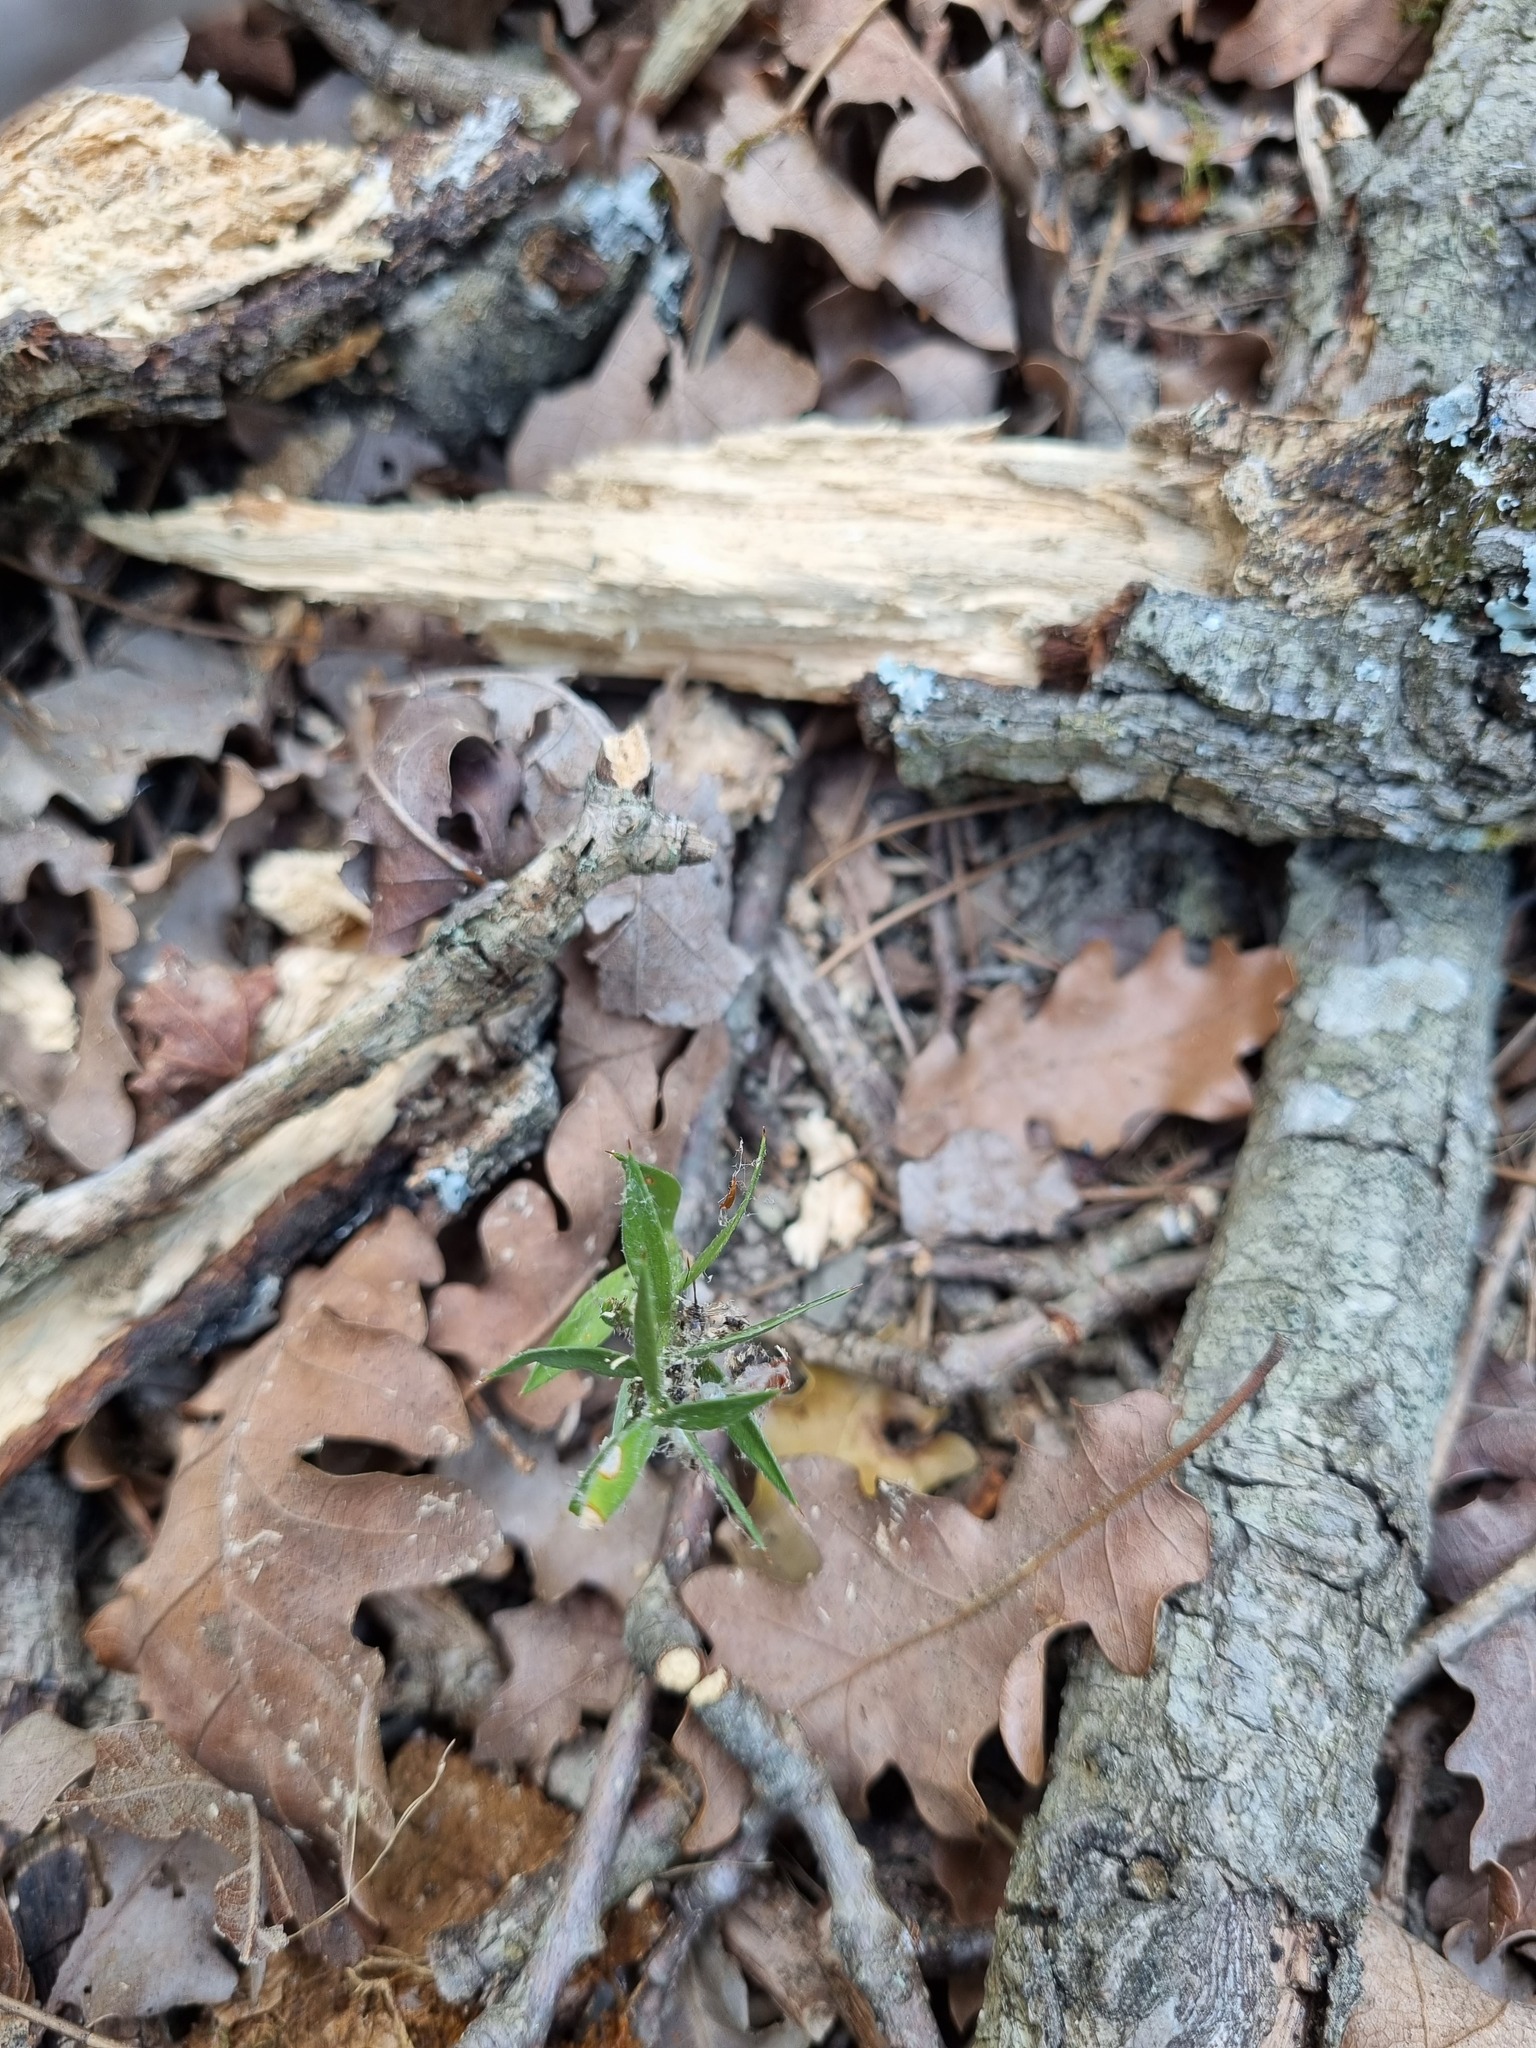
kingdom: Plantae
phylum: Tracheophyta
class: Liliopsida
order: Asparagales
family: Asparagaceae
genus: Ruscus
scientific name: Ruscus aculeatus
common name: Butcher's-broom
